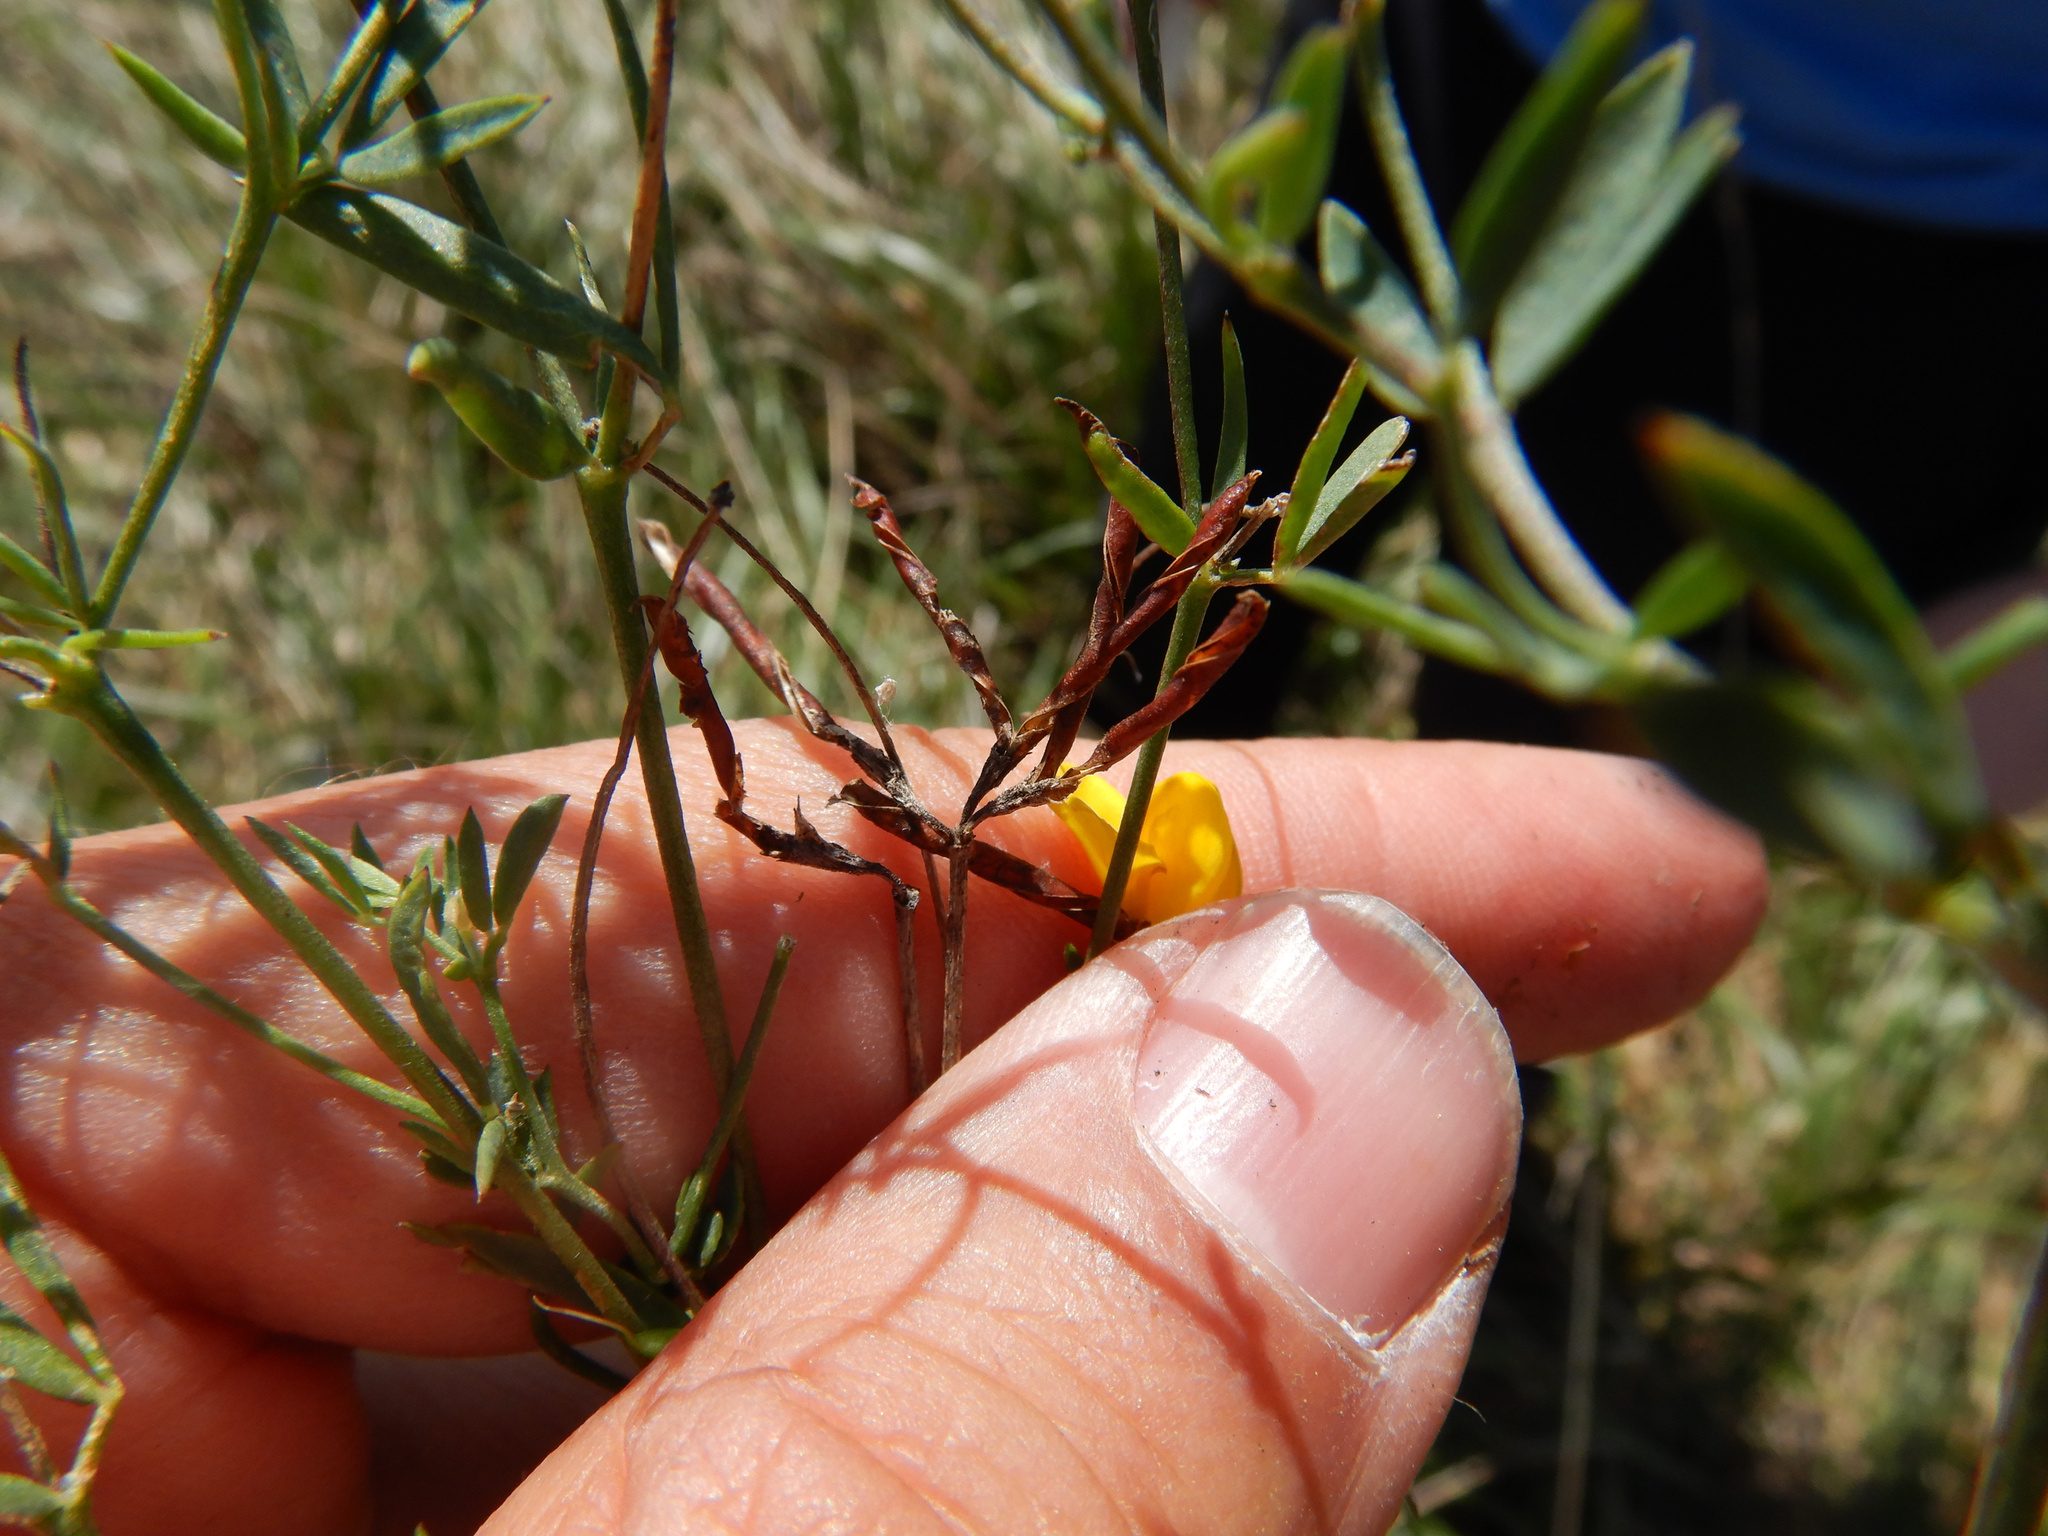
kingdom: Plantae
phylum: Tracheophyta
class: Magnoliopsida
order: Fabales
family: Fabaceae
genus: Lotus
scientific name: Lotus tenuis
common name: Narrow-leaved bird's-foot-trefoil
